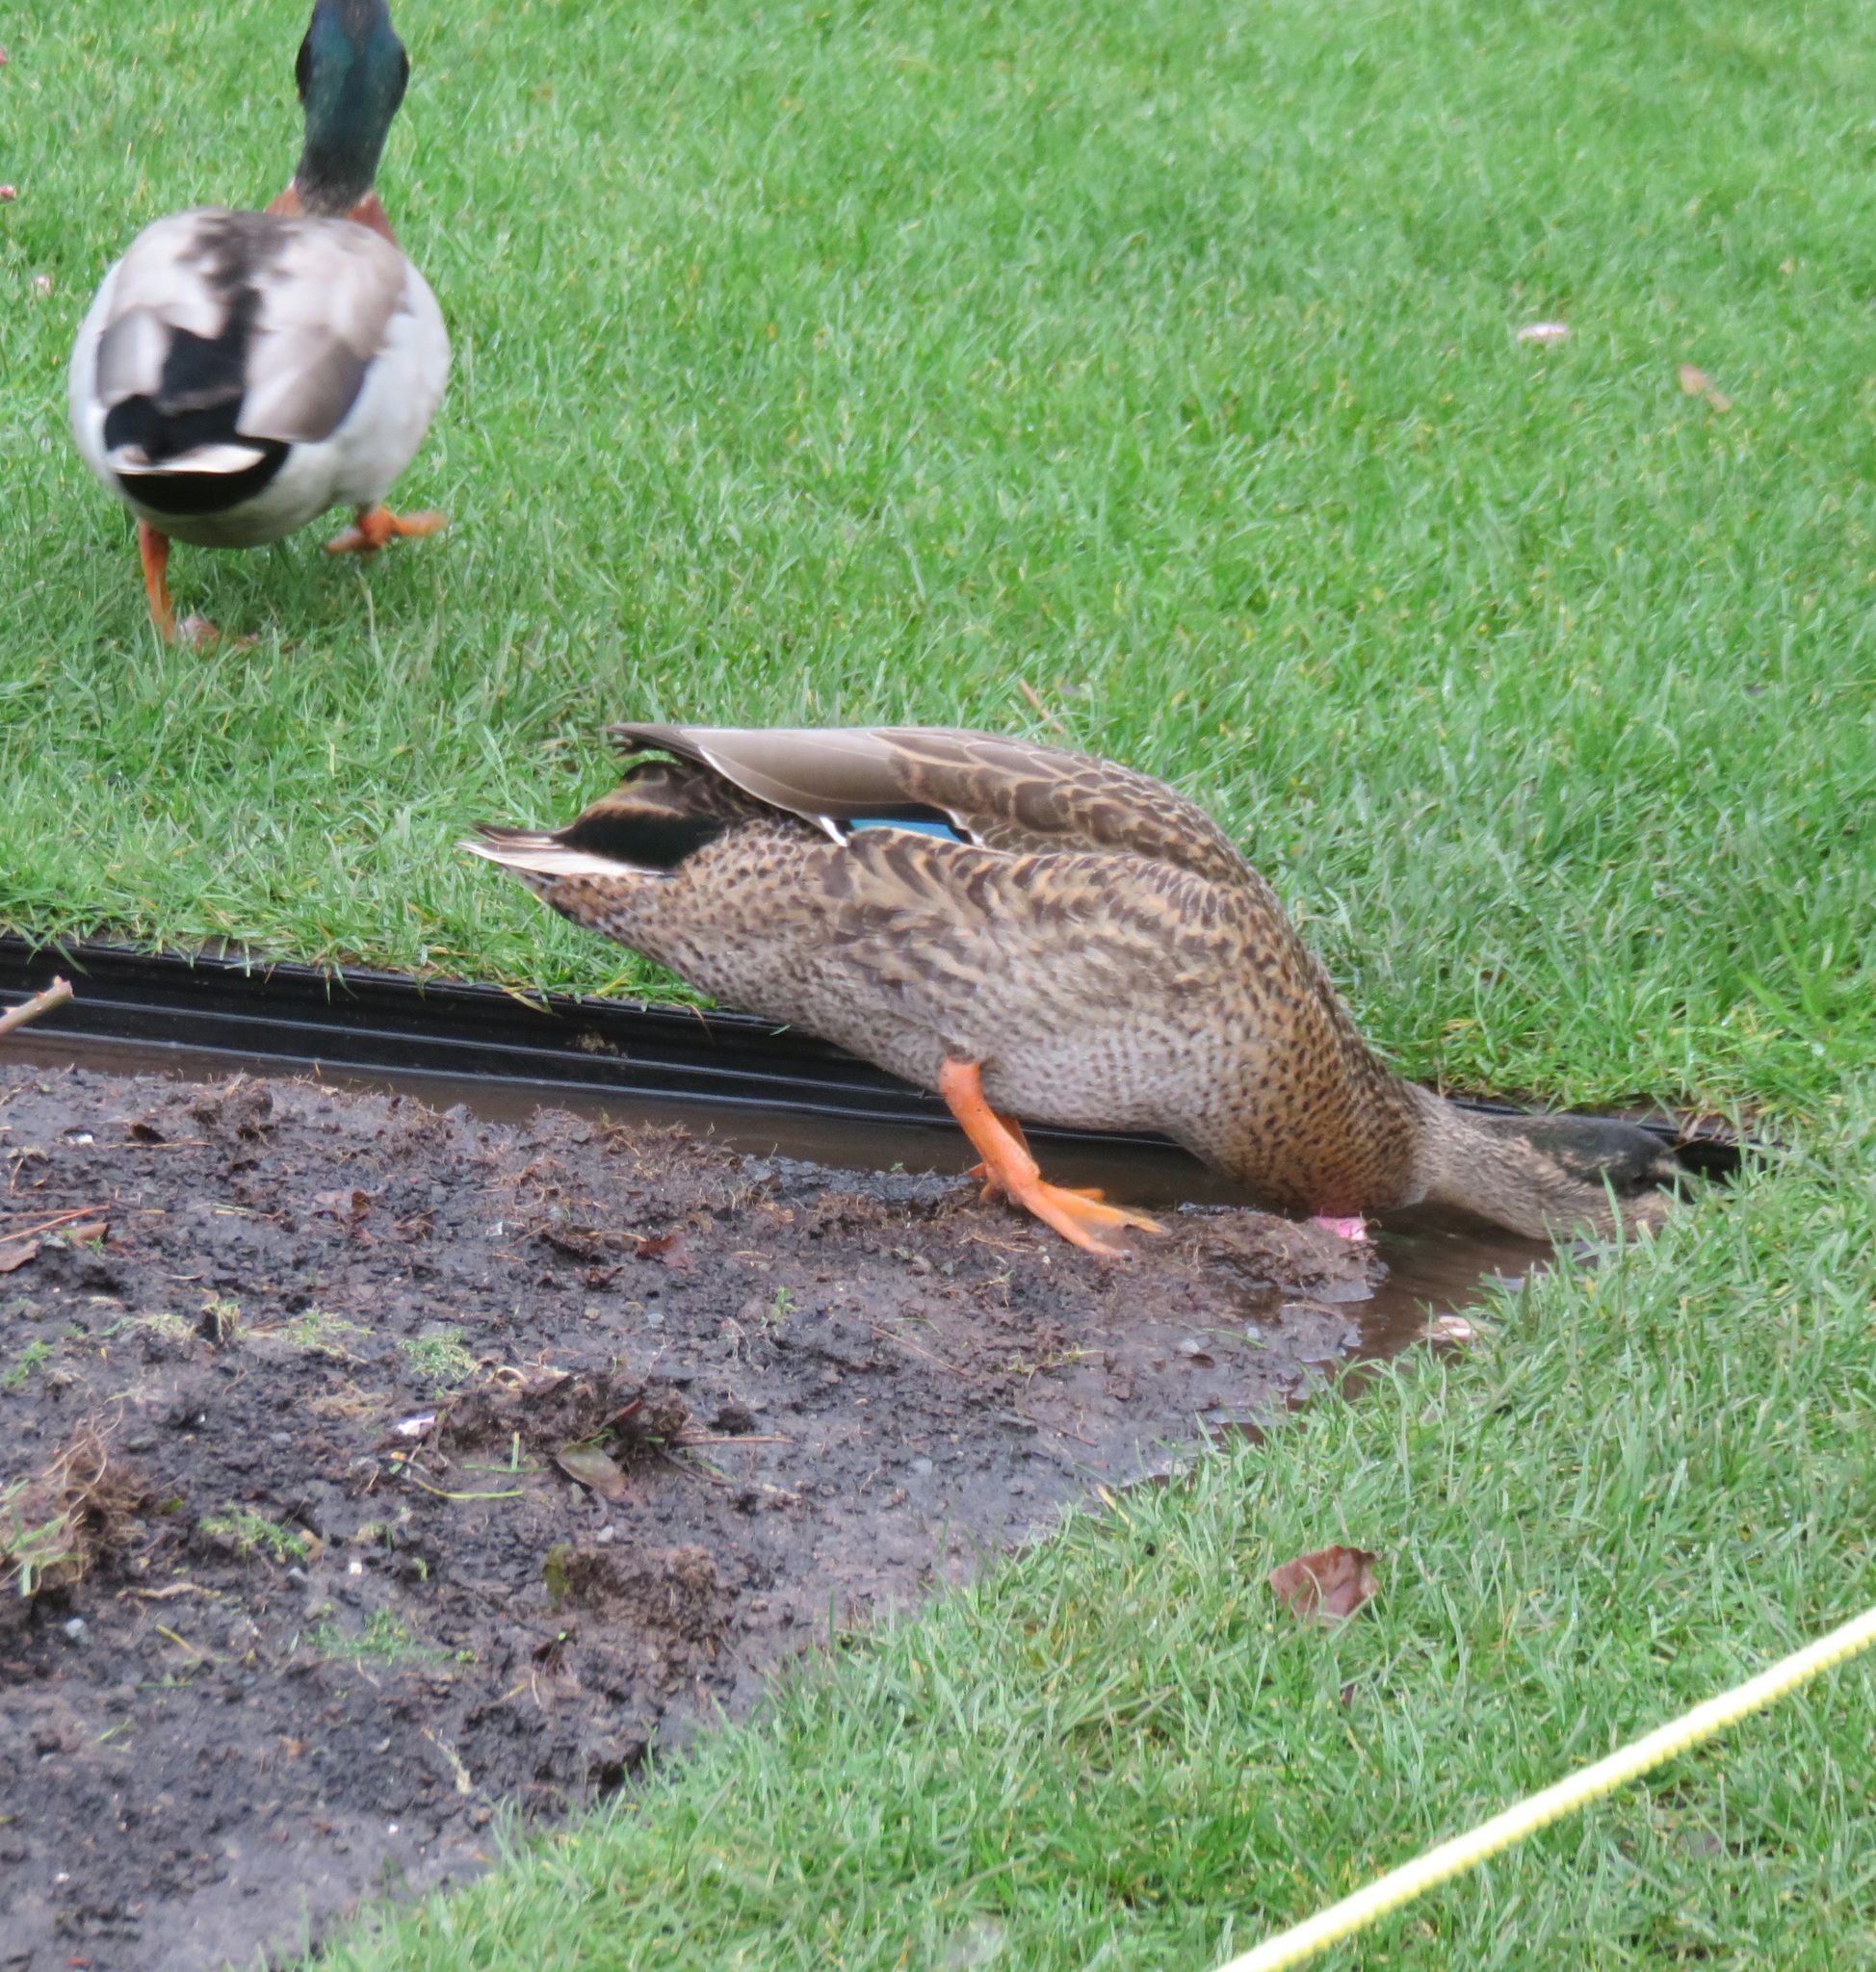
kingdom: Animalia
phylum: Chordata
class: Aves
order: Anseriformes
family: Anatidae
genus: Anas
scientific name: Anas
